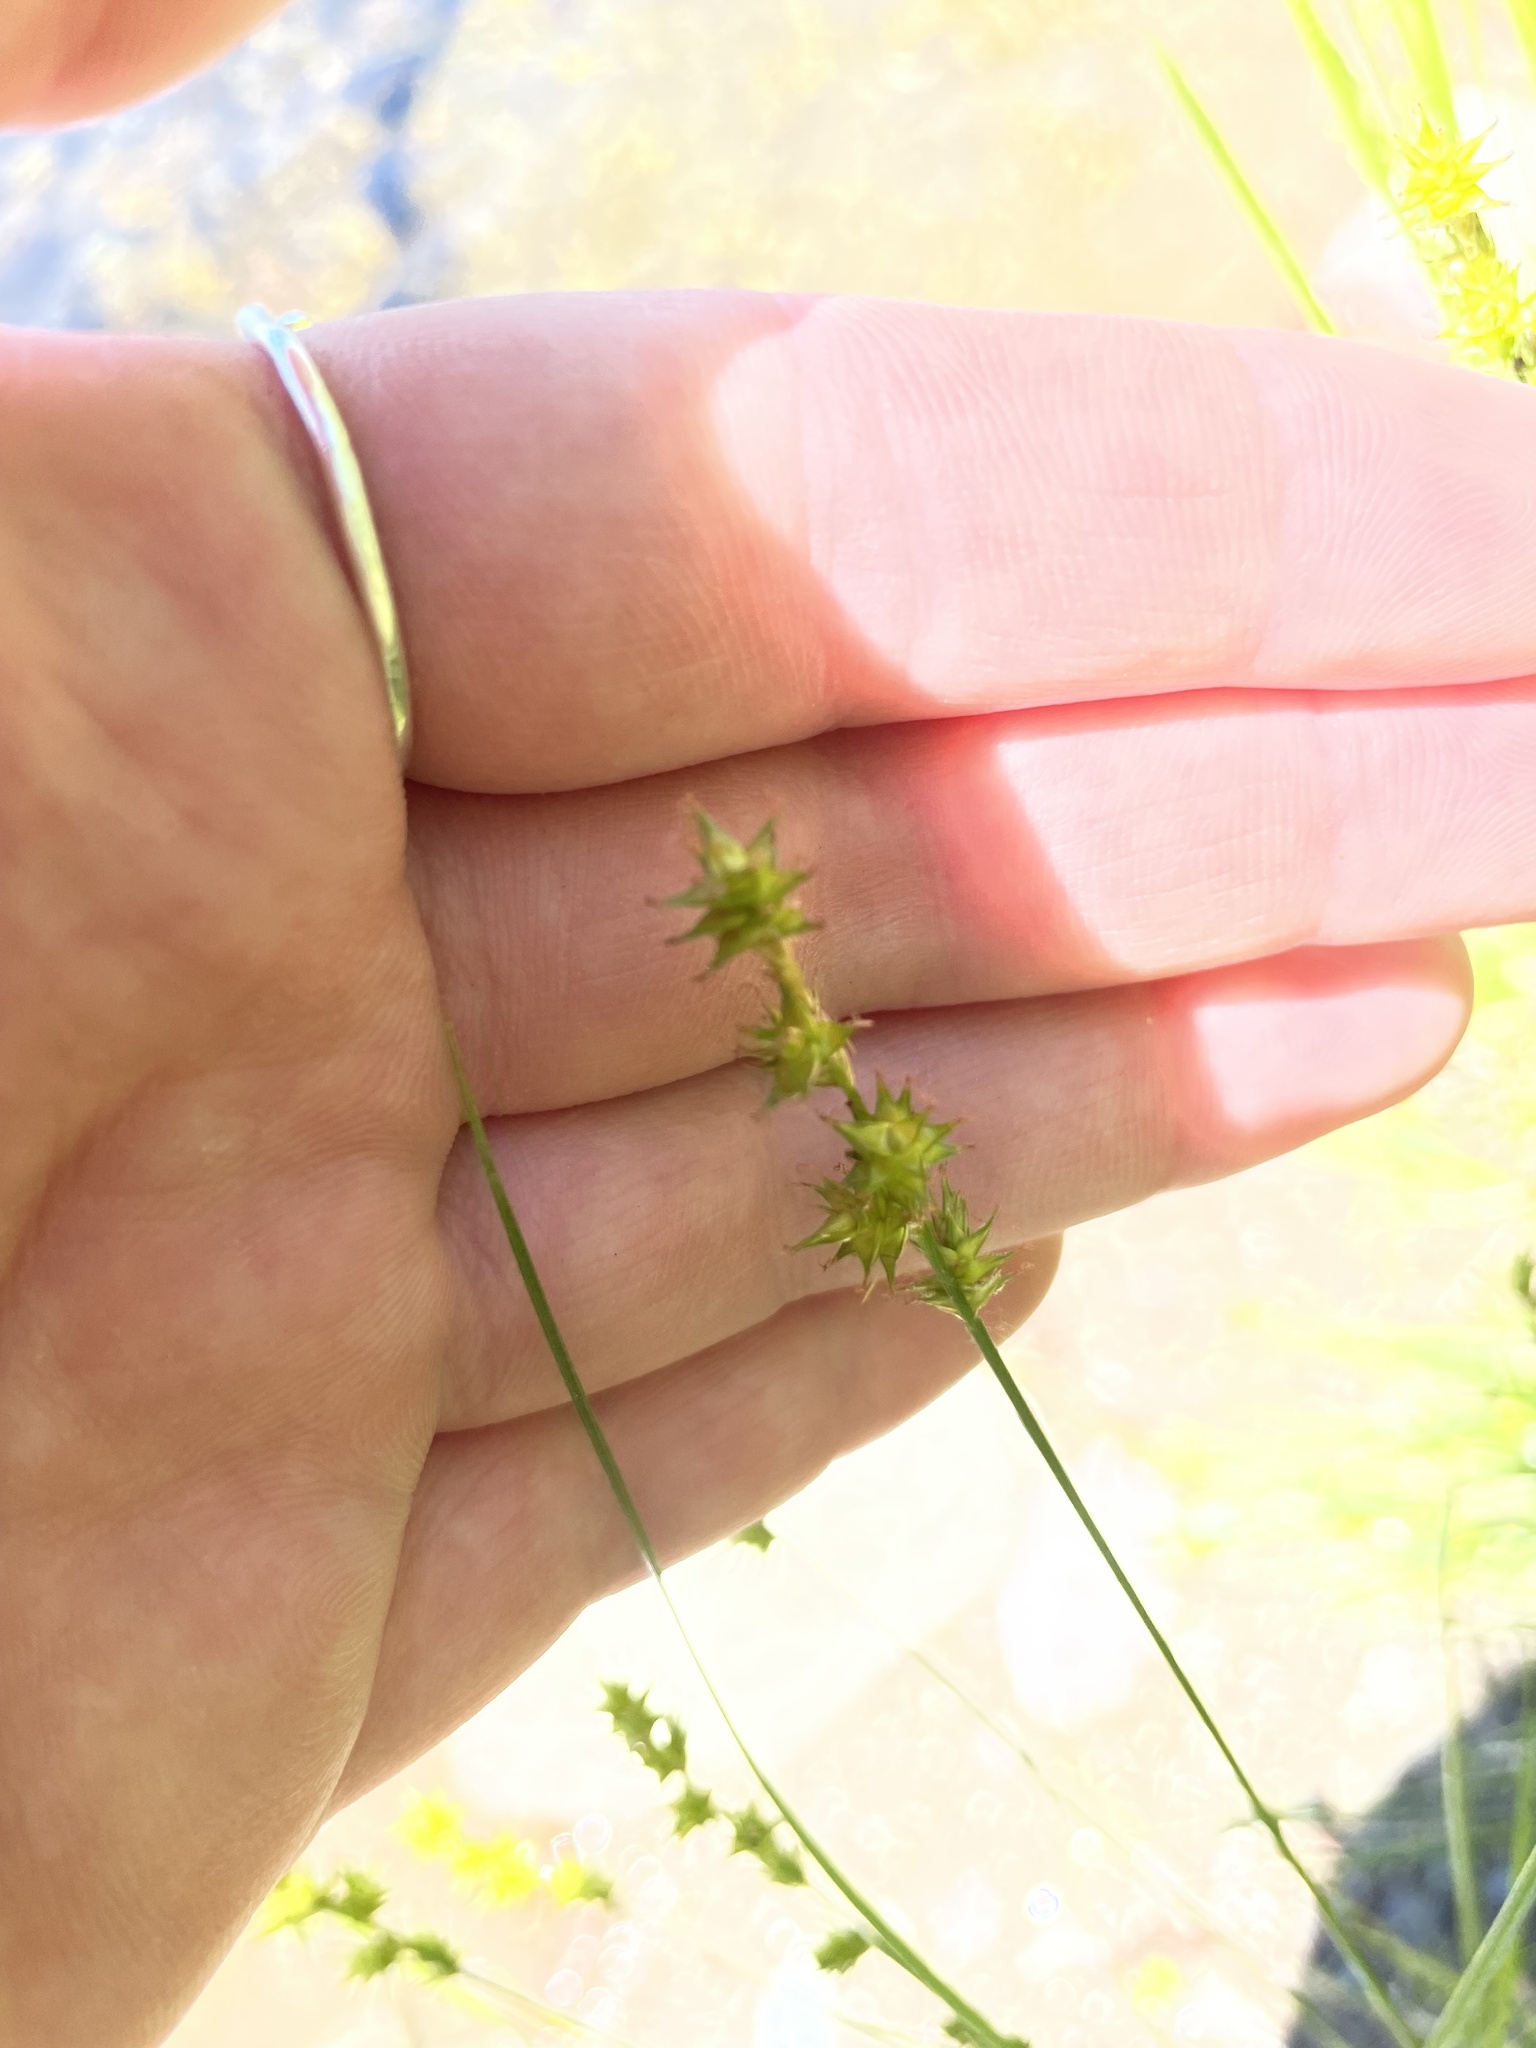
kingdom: Plantae
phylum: Tracheophyta
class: Liliopsida
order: Poales
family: Cyperaceae
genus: Carex
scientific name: Carex echinata
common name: Star sedge
